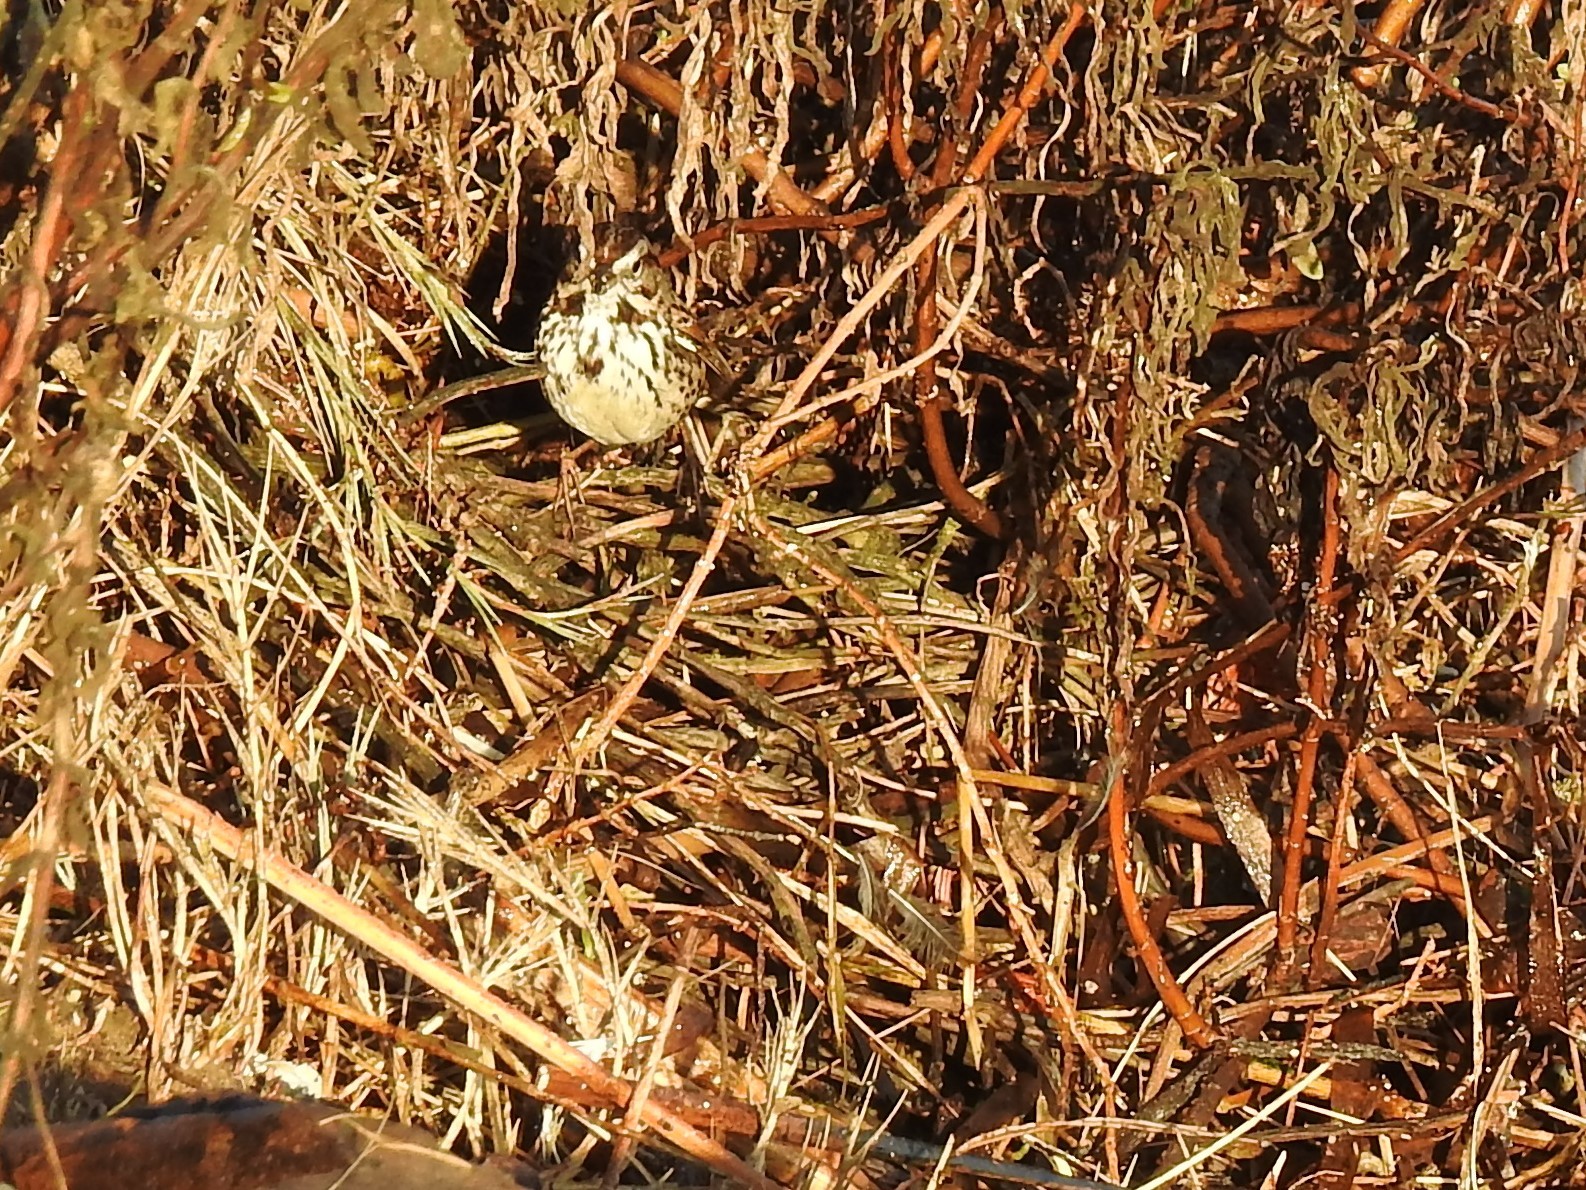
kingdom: Animalia
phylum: Chordata
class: Aves
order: Passeriformes
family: Passerellidae
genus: Melospiza
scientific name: Melospiza melodia
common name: Song sparrow
